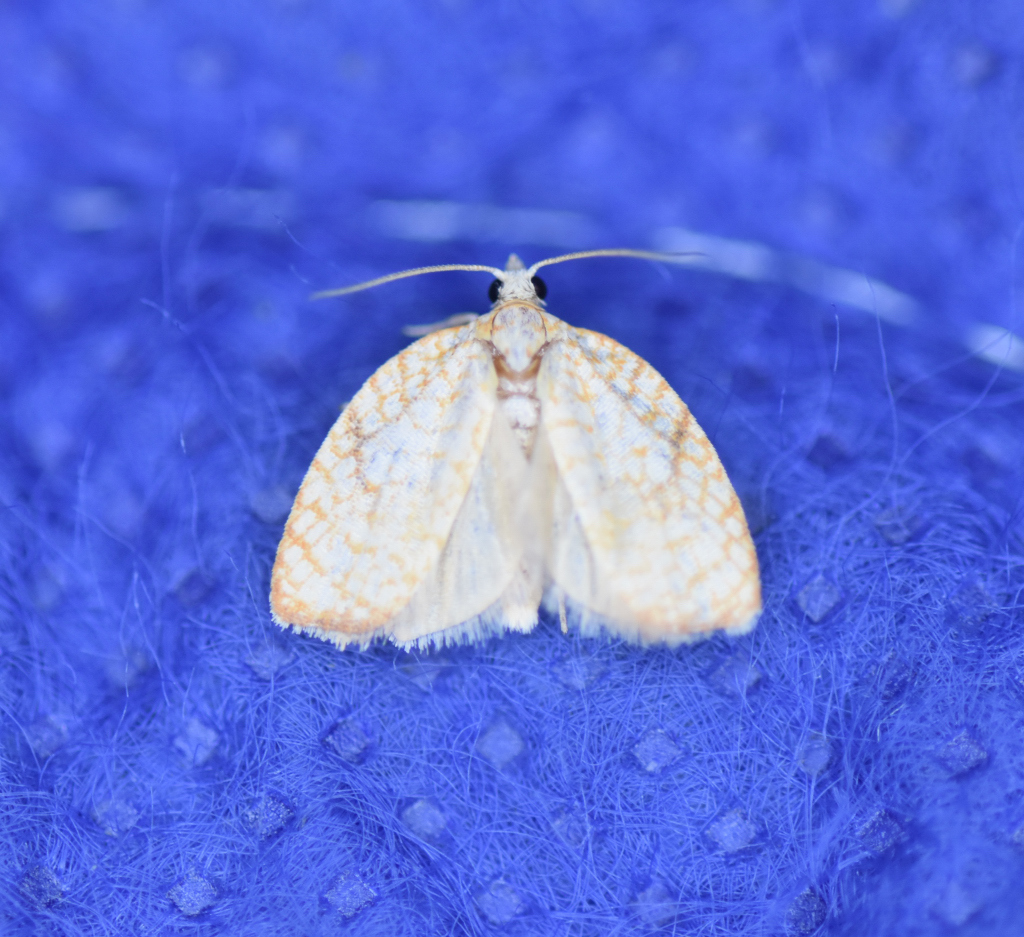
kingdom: Animalia
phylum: Arthropoda
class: Insecta
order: Lepidoptera
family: Tortricidae
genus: Acleris
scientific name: Acleris forsskaleana
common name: Maple button
